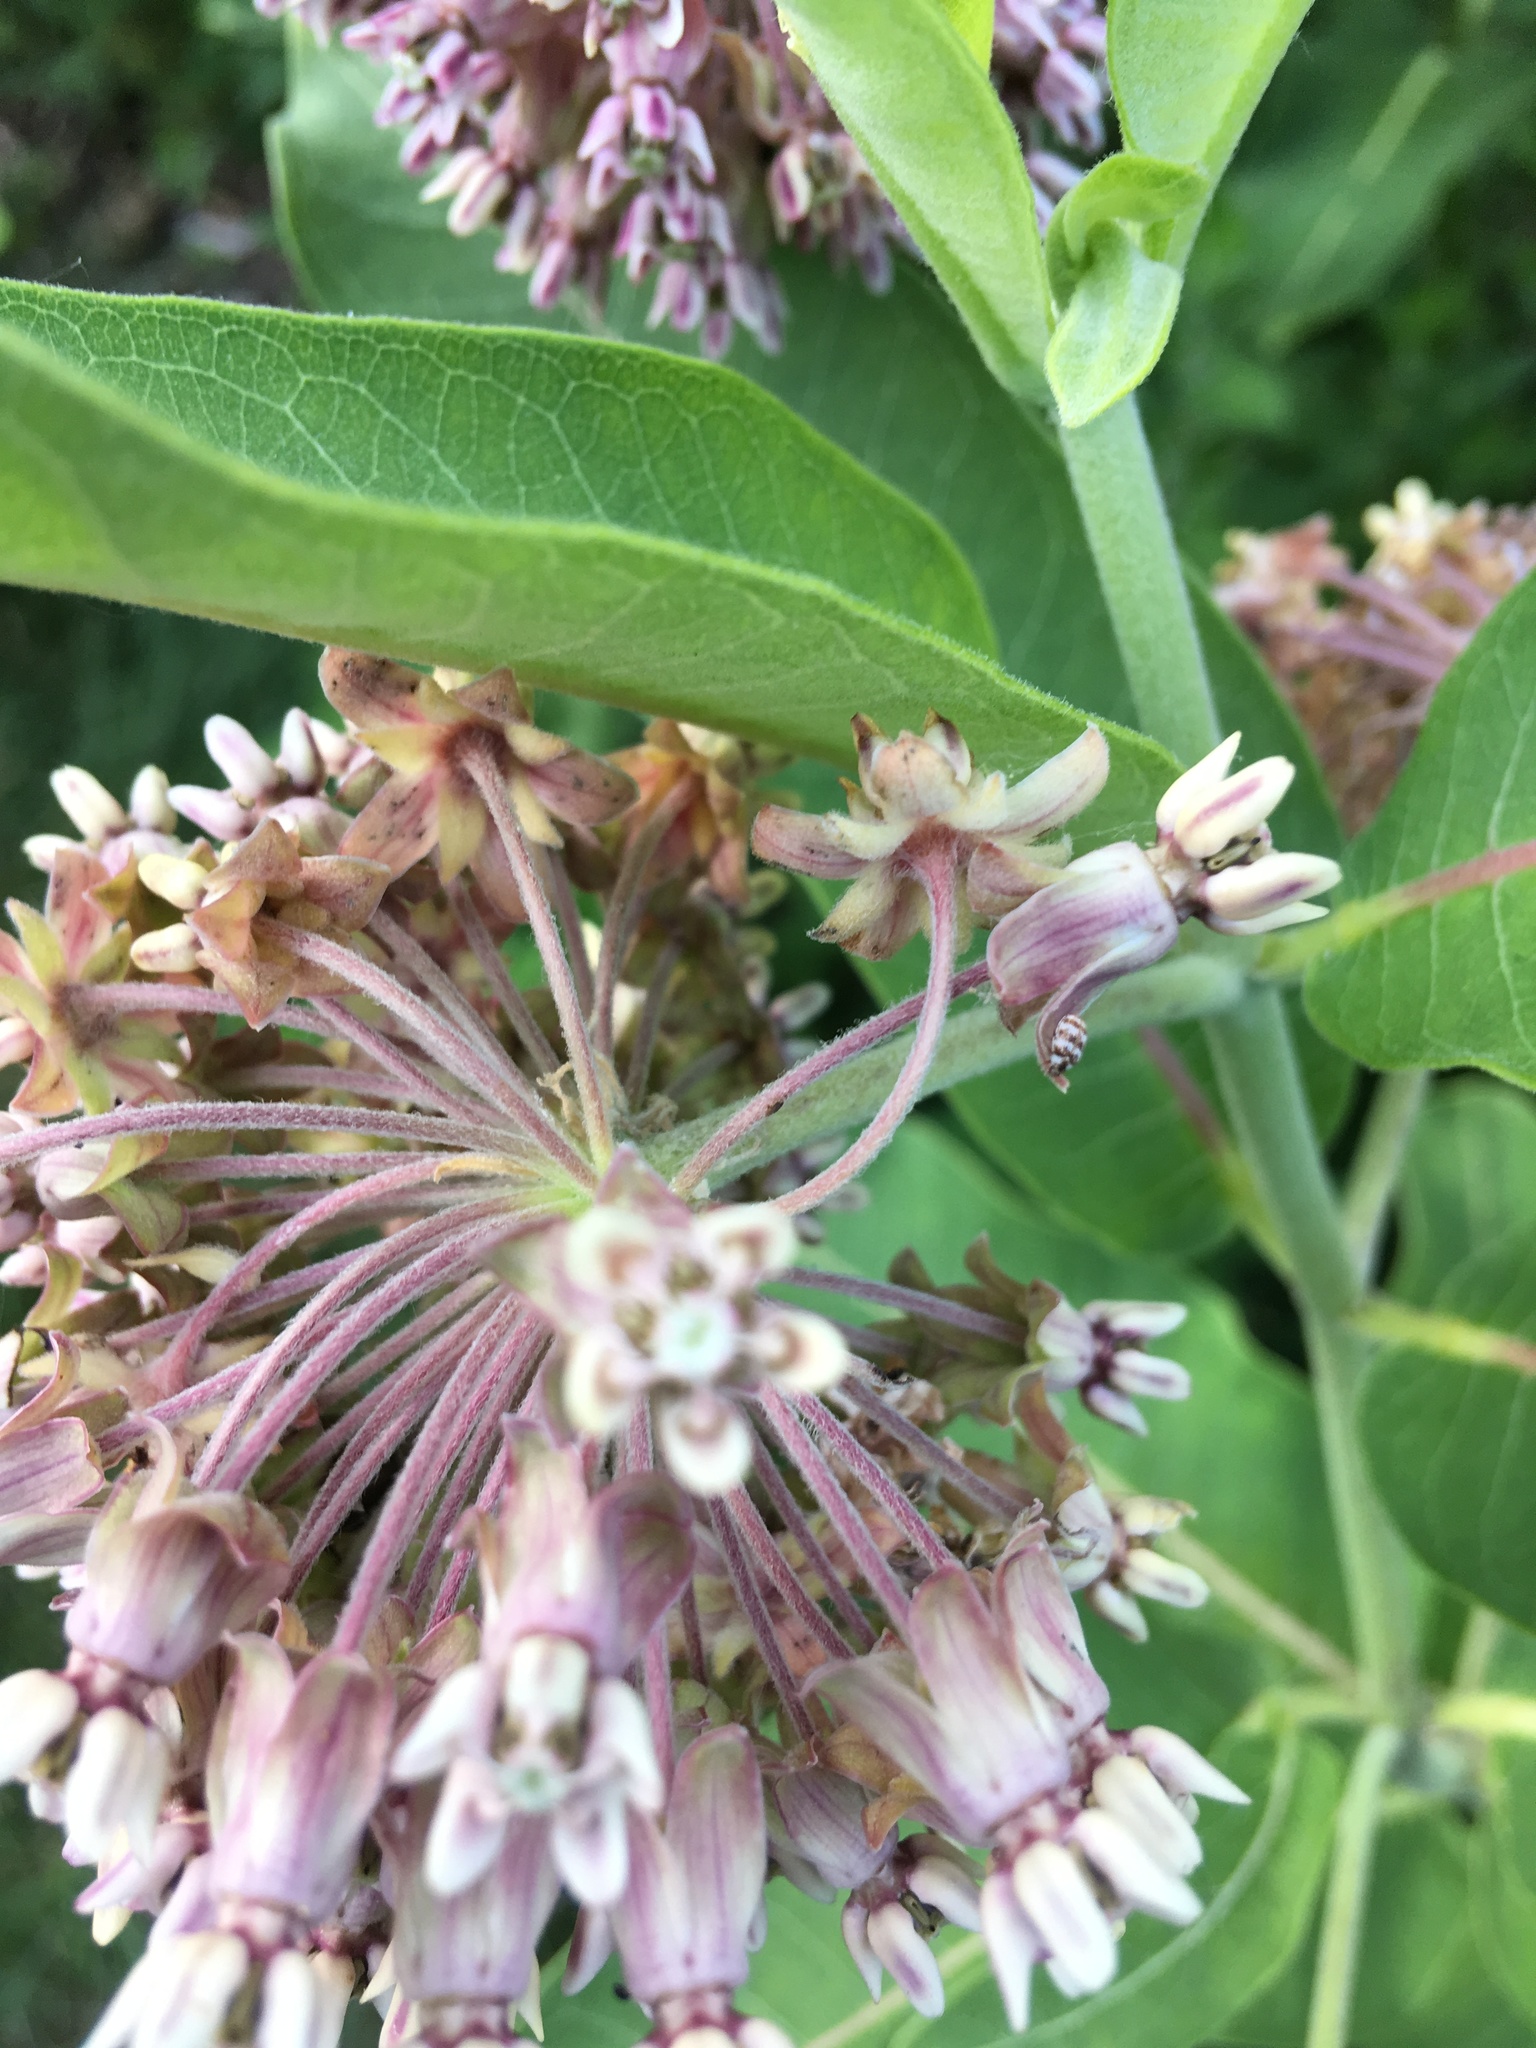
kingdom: Plantae
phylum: Tracheophyta
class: Magnoliopsida
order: Gentianales
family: Apocynaceae
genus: Asclepias
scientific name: Asclepias syriaca
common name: Common milkweed
